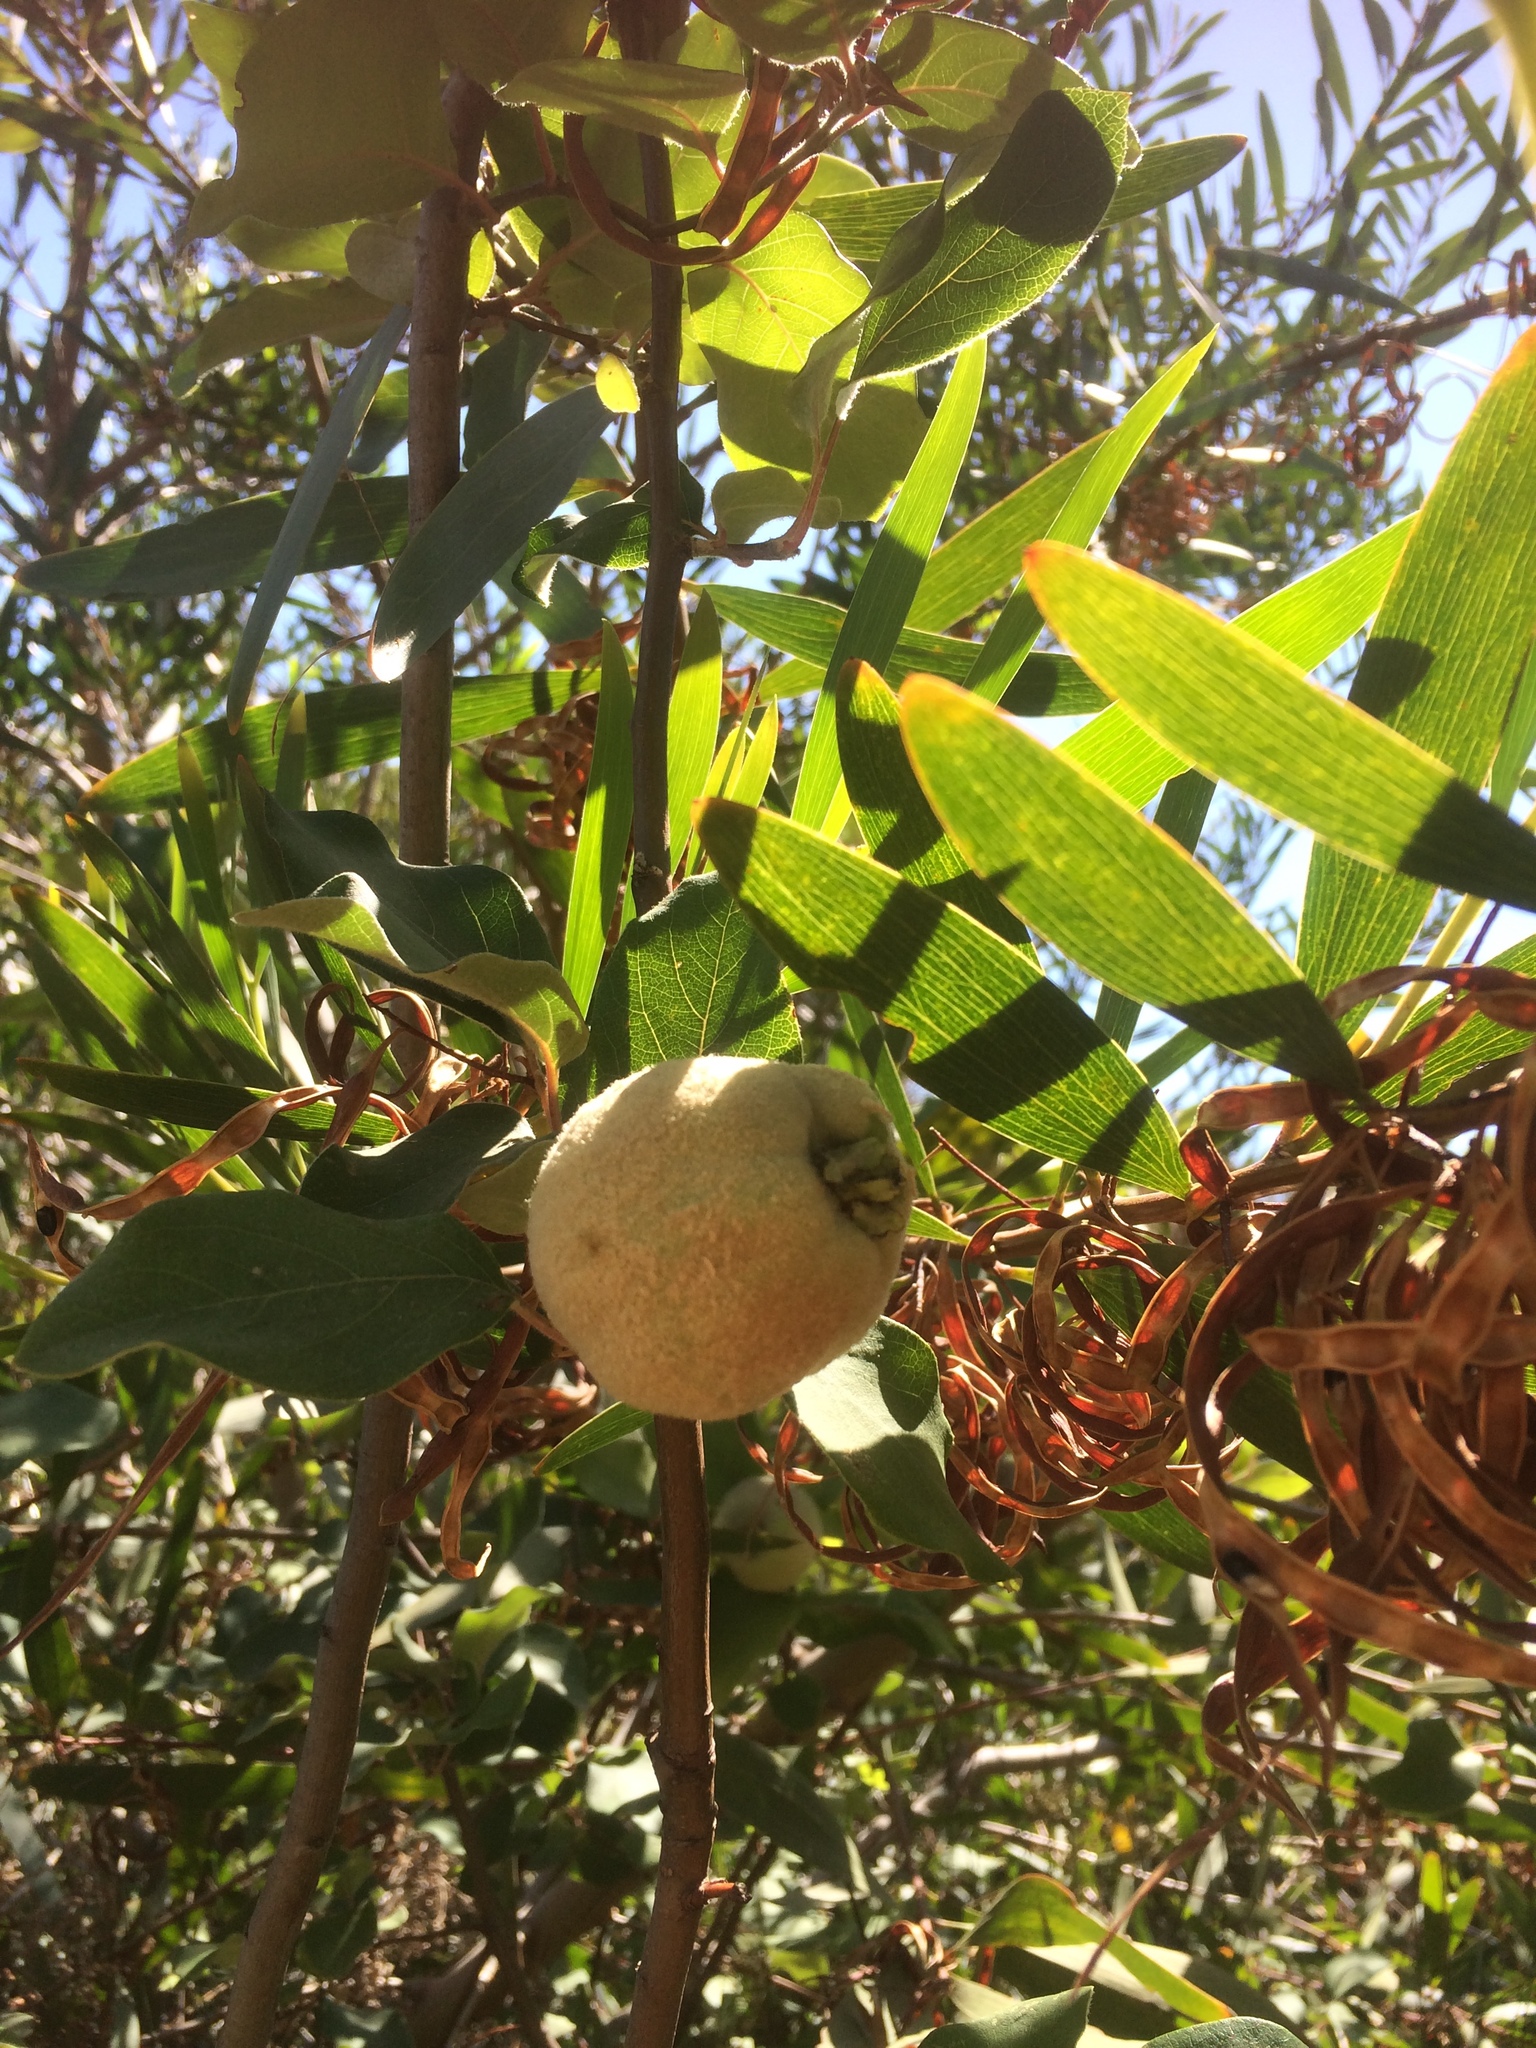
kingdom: Plantae
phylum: Tracheophyta
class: Magnoliopsida
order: Fabales
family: Fabaceae
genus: Acacia
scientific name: Acacia longifolia
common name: Sydney golden wattle
